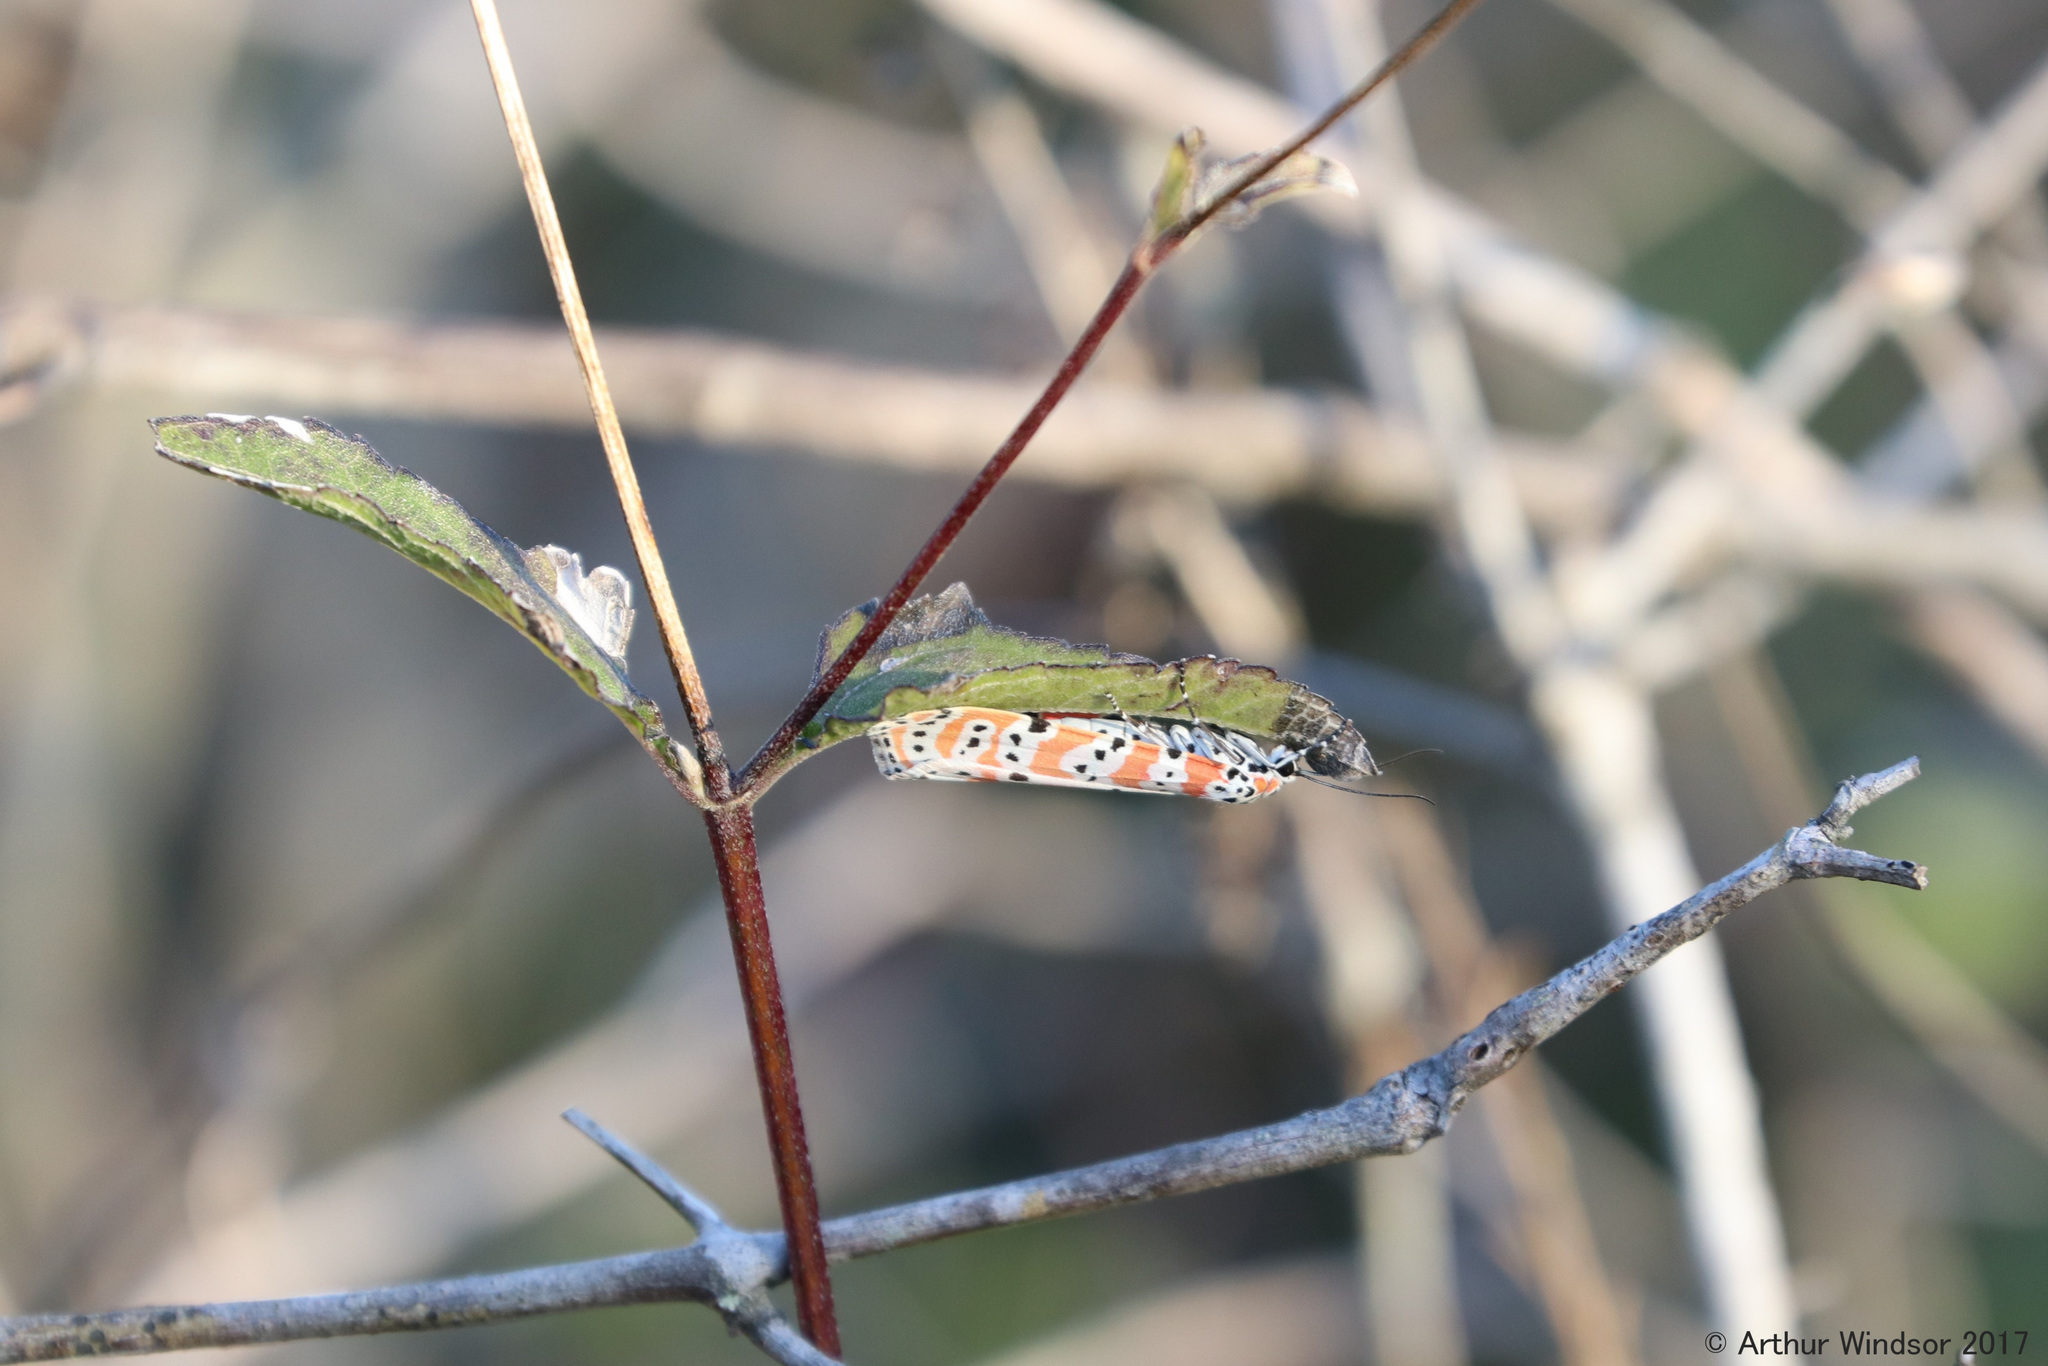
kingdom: Animalia
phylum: Arthropoda
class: Insecta
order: Lepidoptera
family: Erebidae
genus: Utetheisa
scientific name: Utetheisa ornatrix
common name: Beautiful utetheisa
